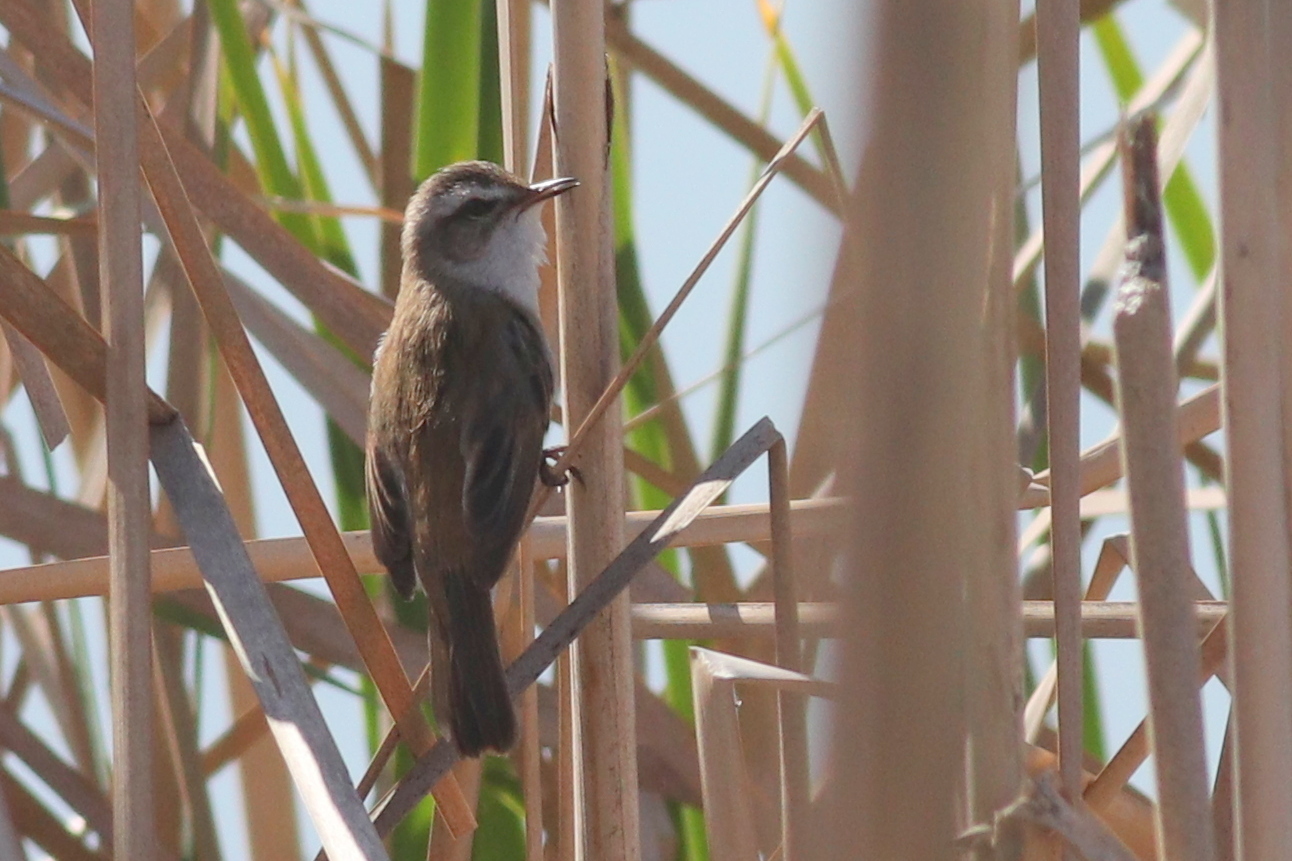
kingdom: Animalia
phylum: Chordata
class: Aves
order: Passeriformes
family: Acrocephalidae
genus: Acrocephalus
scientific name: Acrocephalus melanopogon
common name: Moustached warbler
